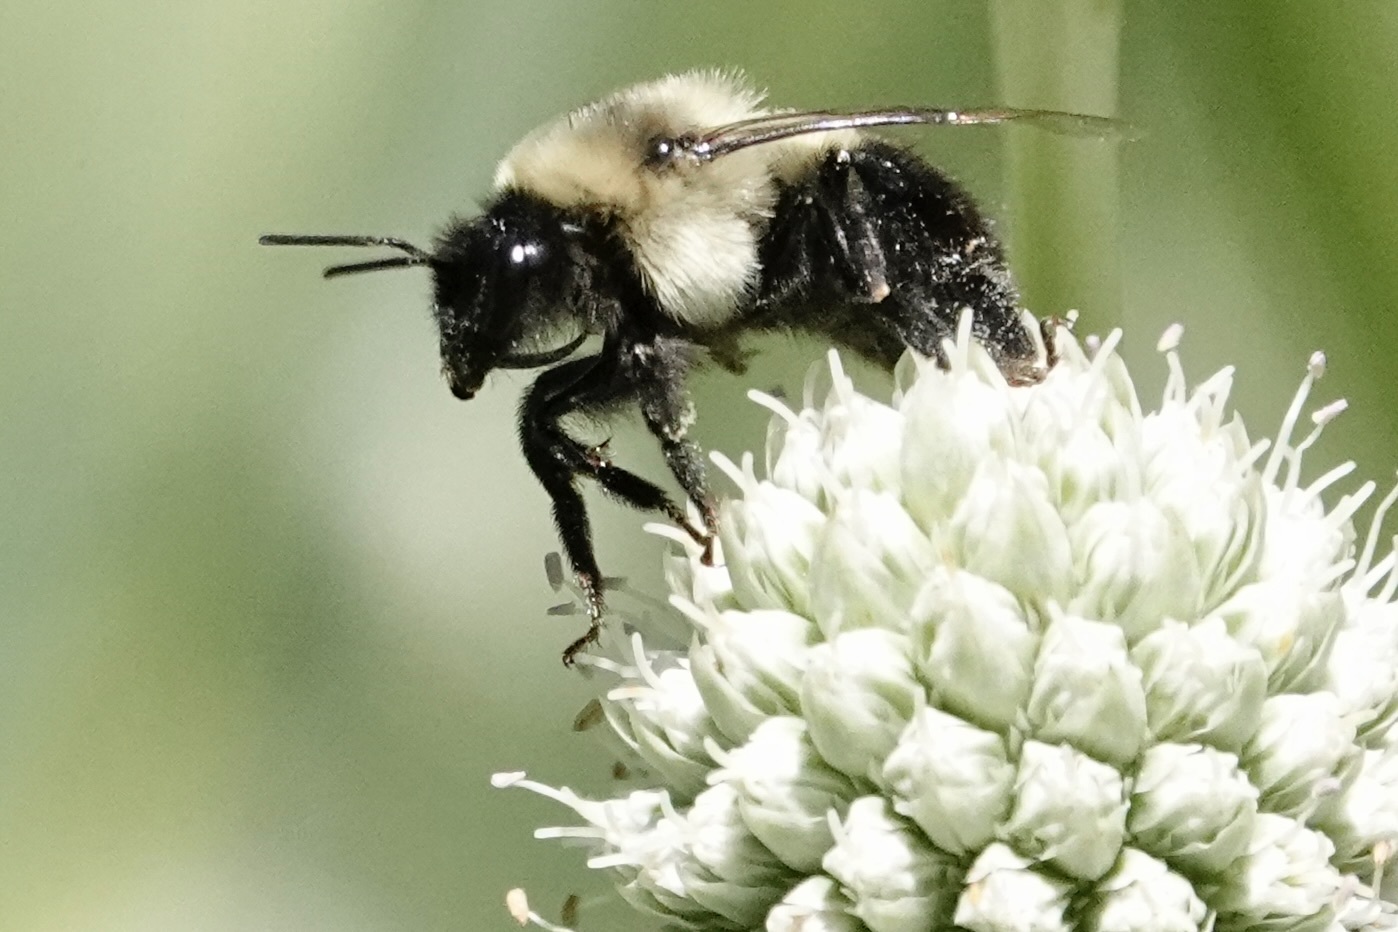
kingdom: Animalia
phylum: Arthropoda
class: Insecta
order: Hymenoptera
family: Apidae
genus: Bombus
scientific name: Bombus impatiens
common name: Common eastern bumble bee
